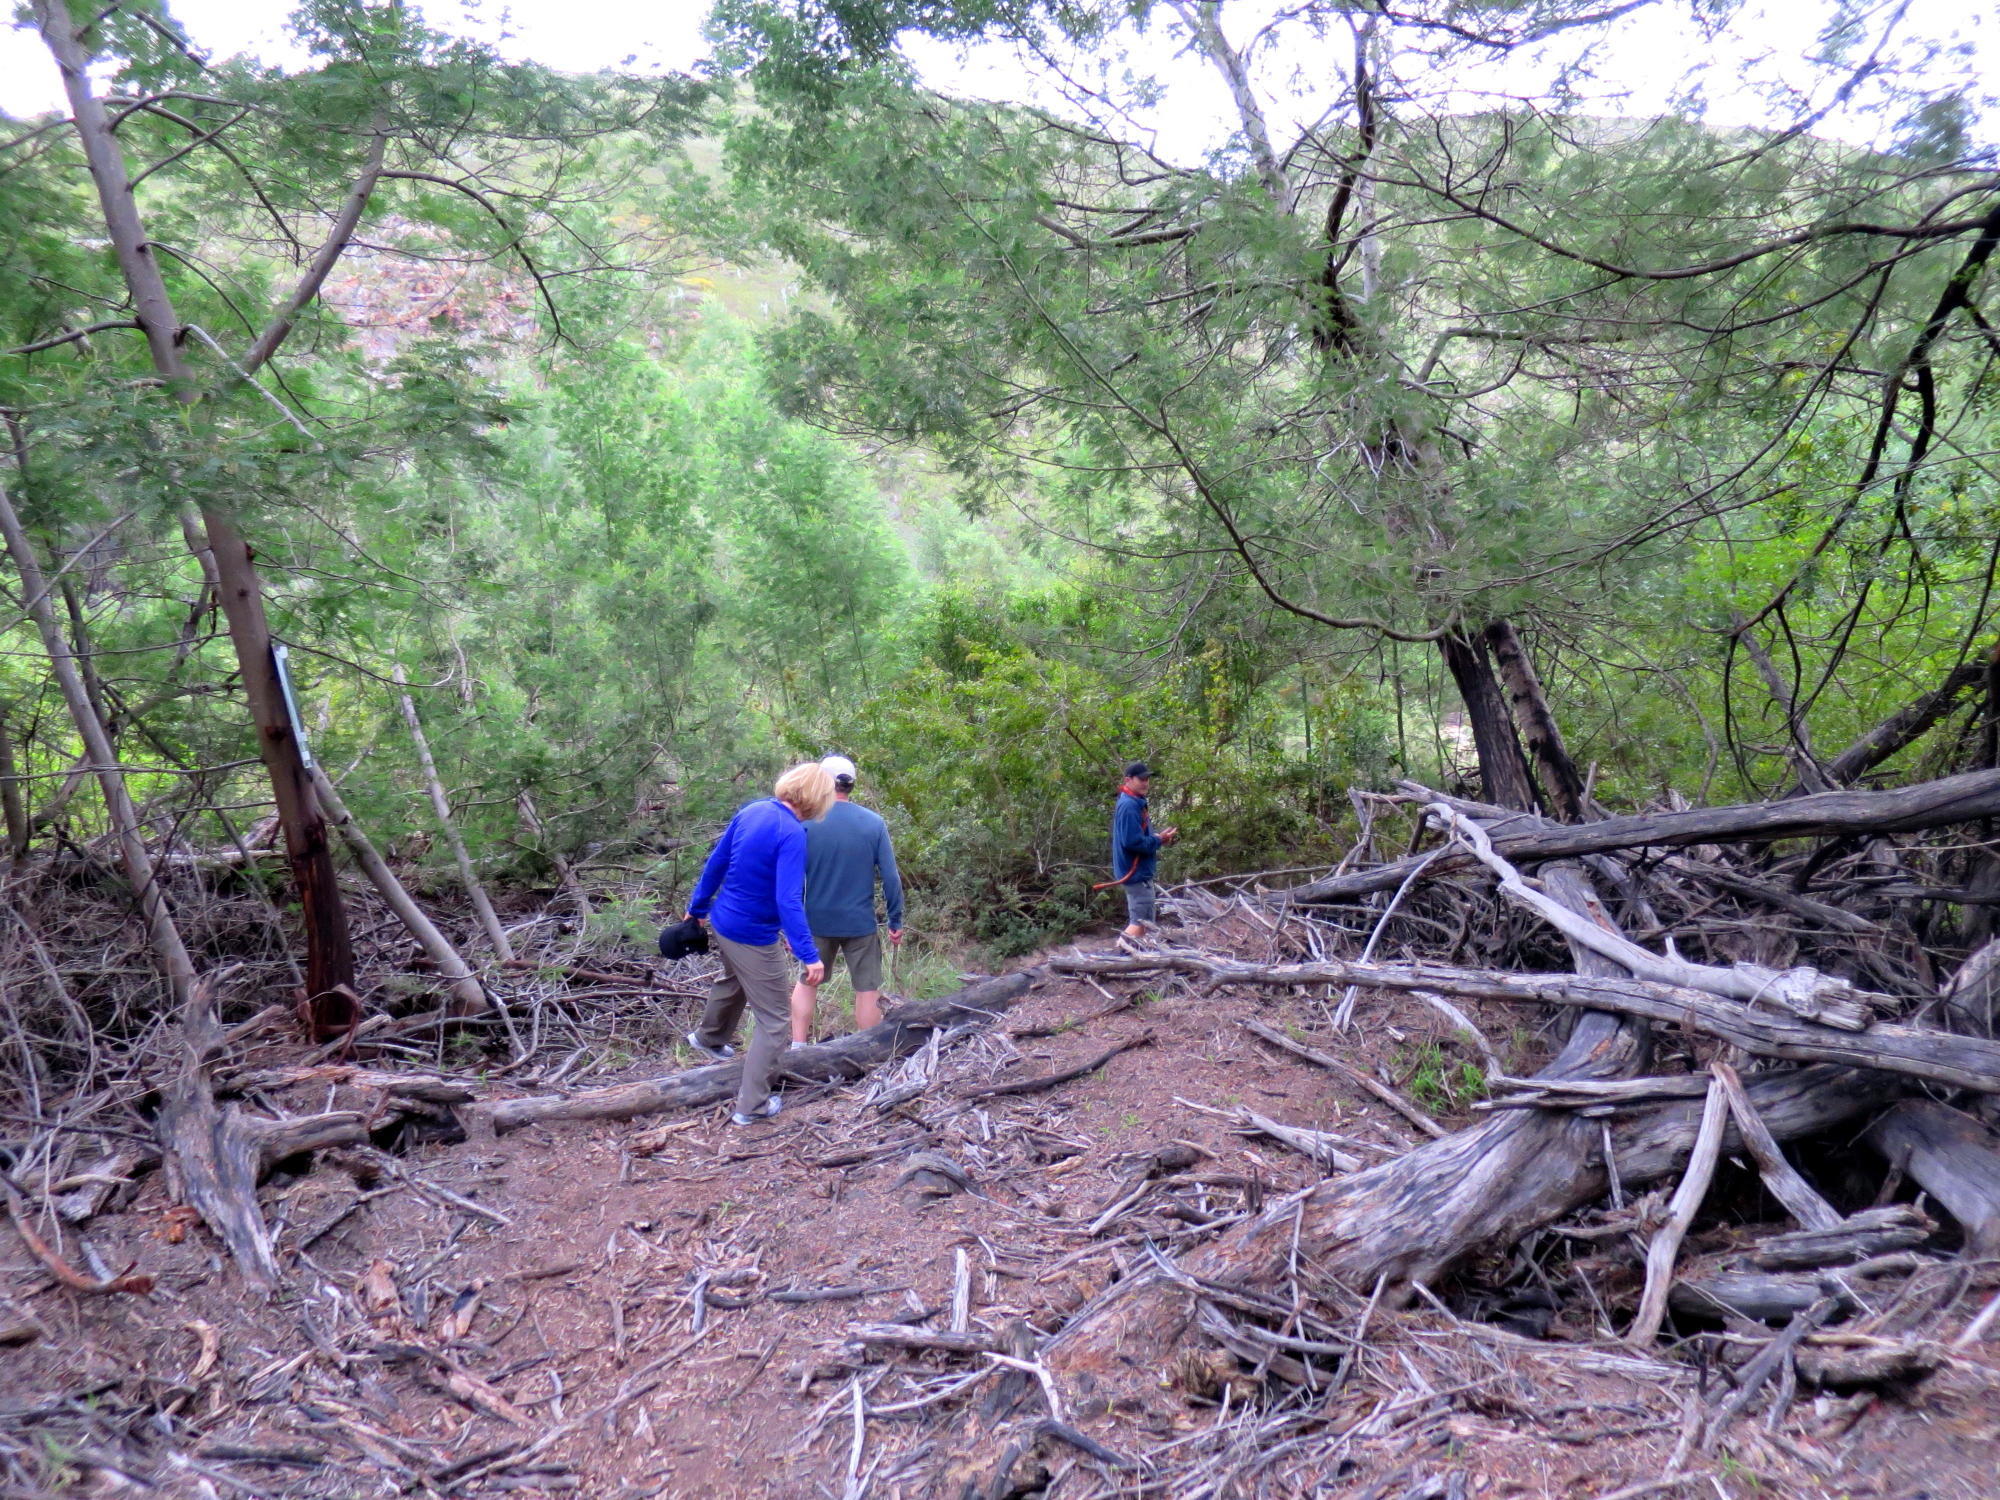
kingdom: Plantae
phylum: Tracheophyta
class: Magnoliopsida
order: Fabales
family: Fabaceae
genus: Acacia
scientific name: Acacia mearnsii
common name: Black wattle
